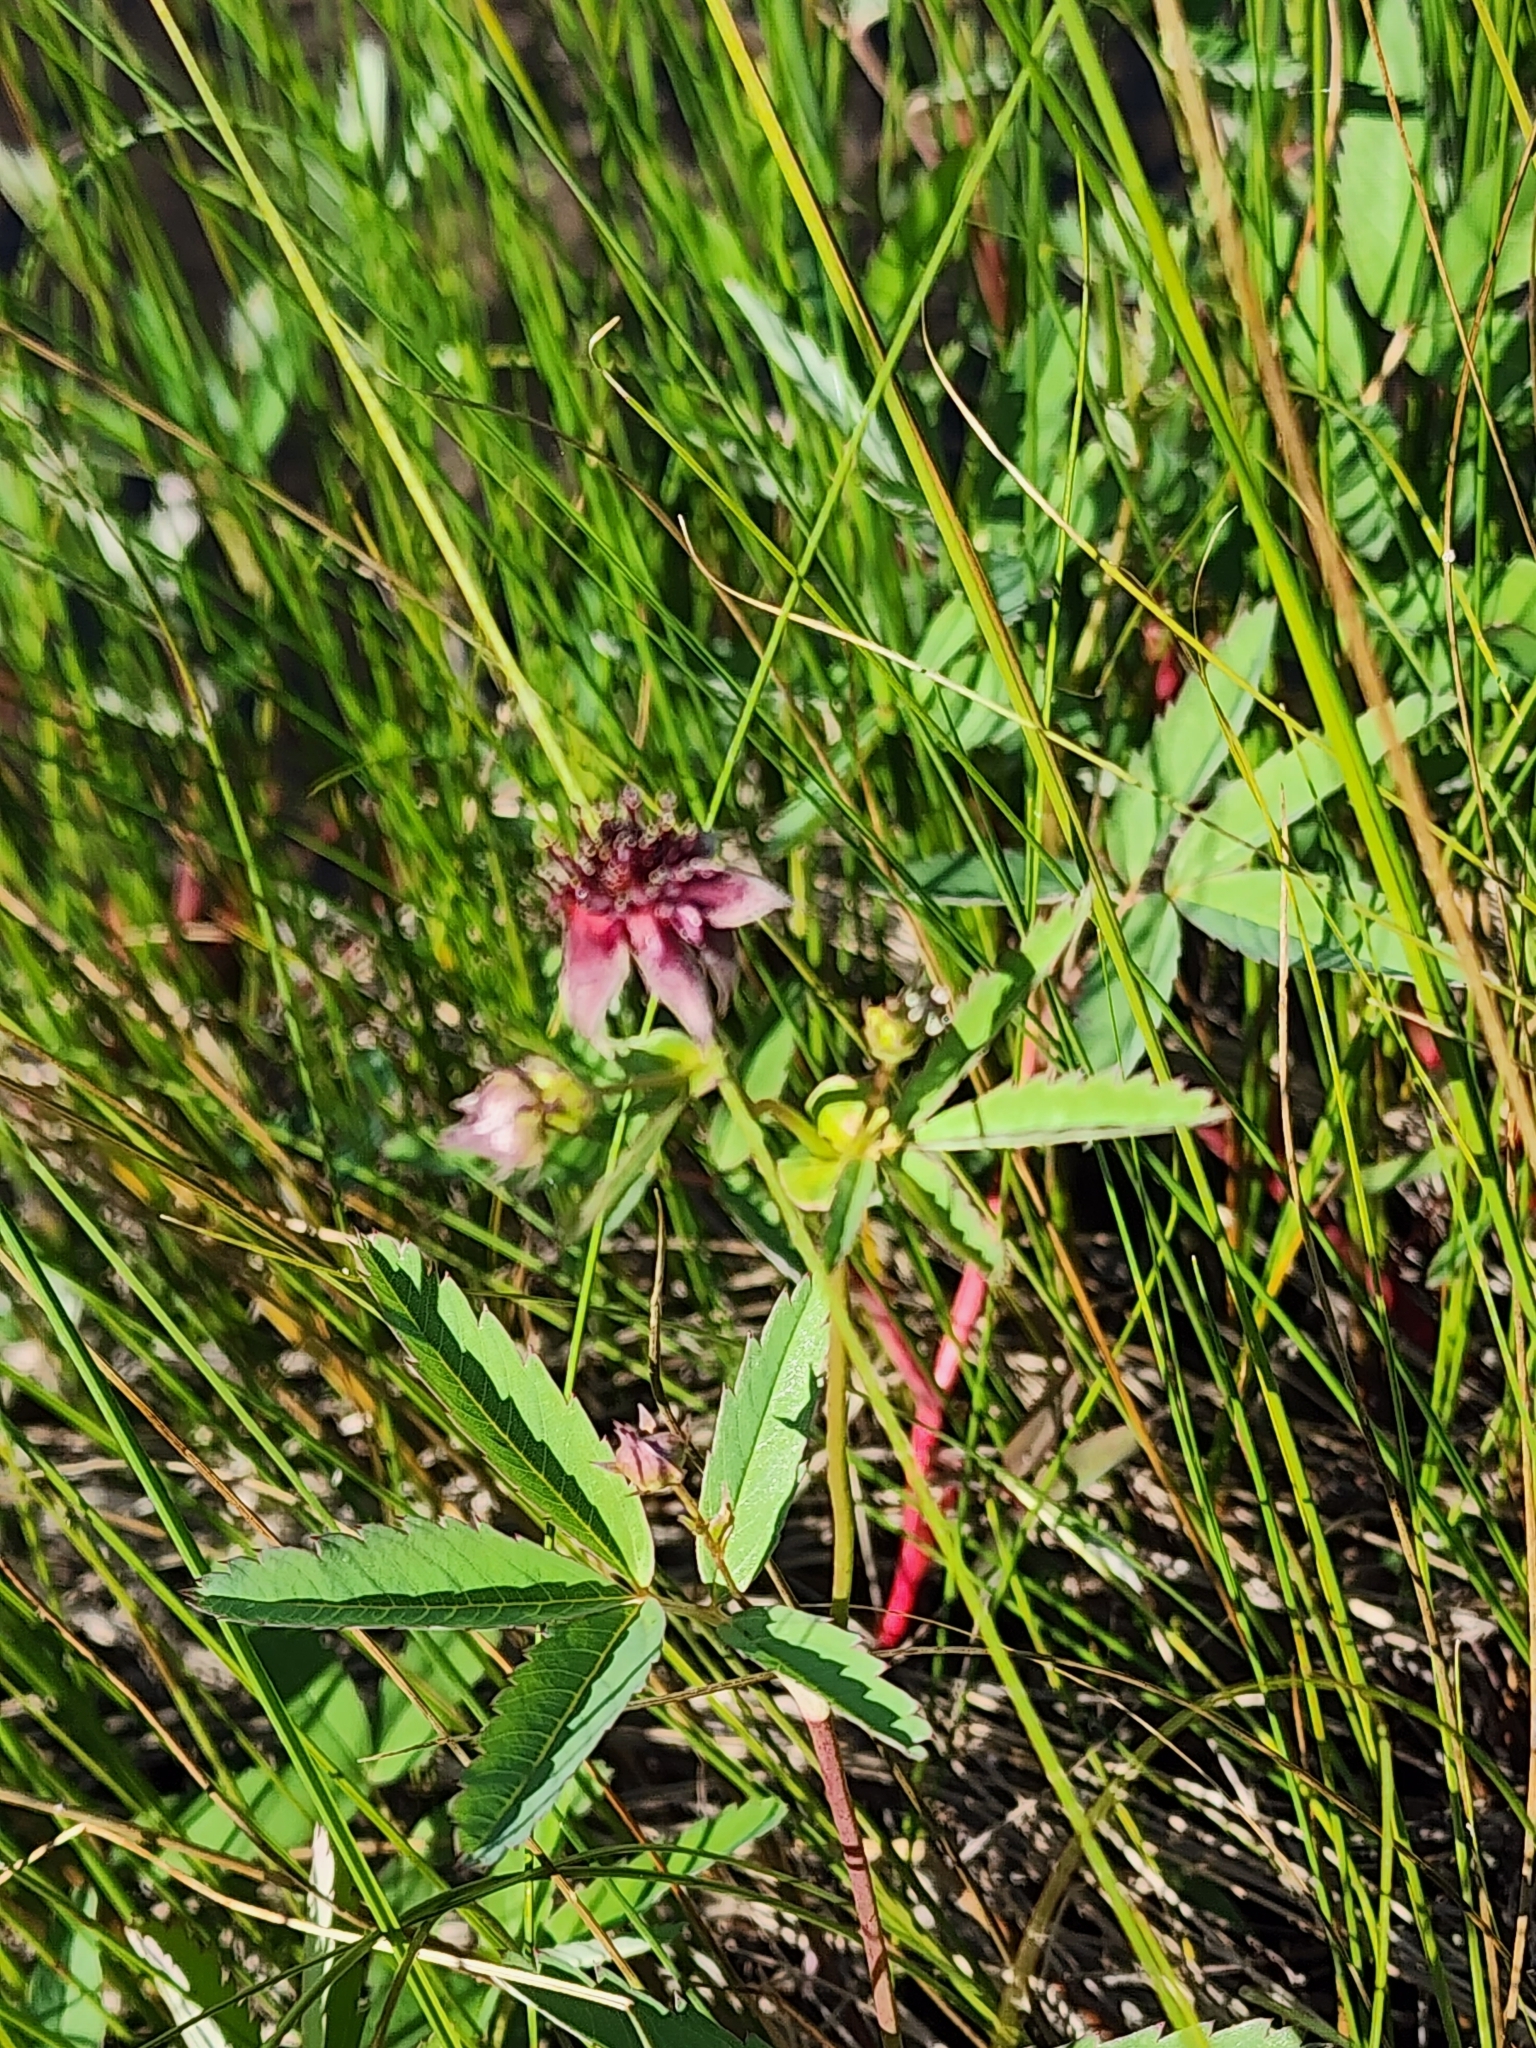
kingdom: Plantae
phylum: Tracheophyta
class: Magnoliopsida
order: Rosales
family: Rosaceae
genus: Comarum
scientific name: Comarum palustre
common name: Marsh cinquefoil
